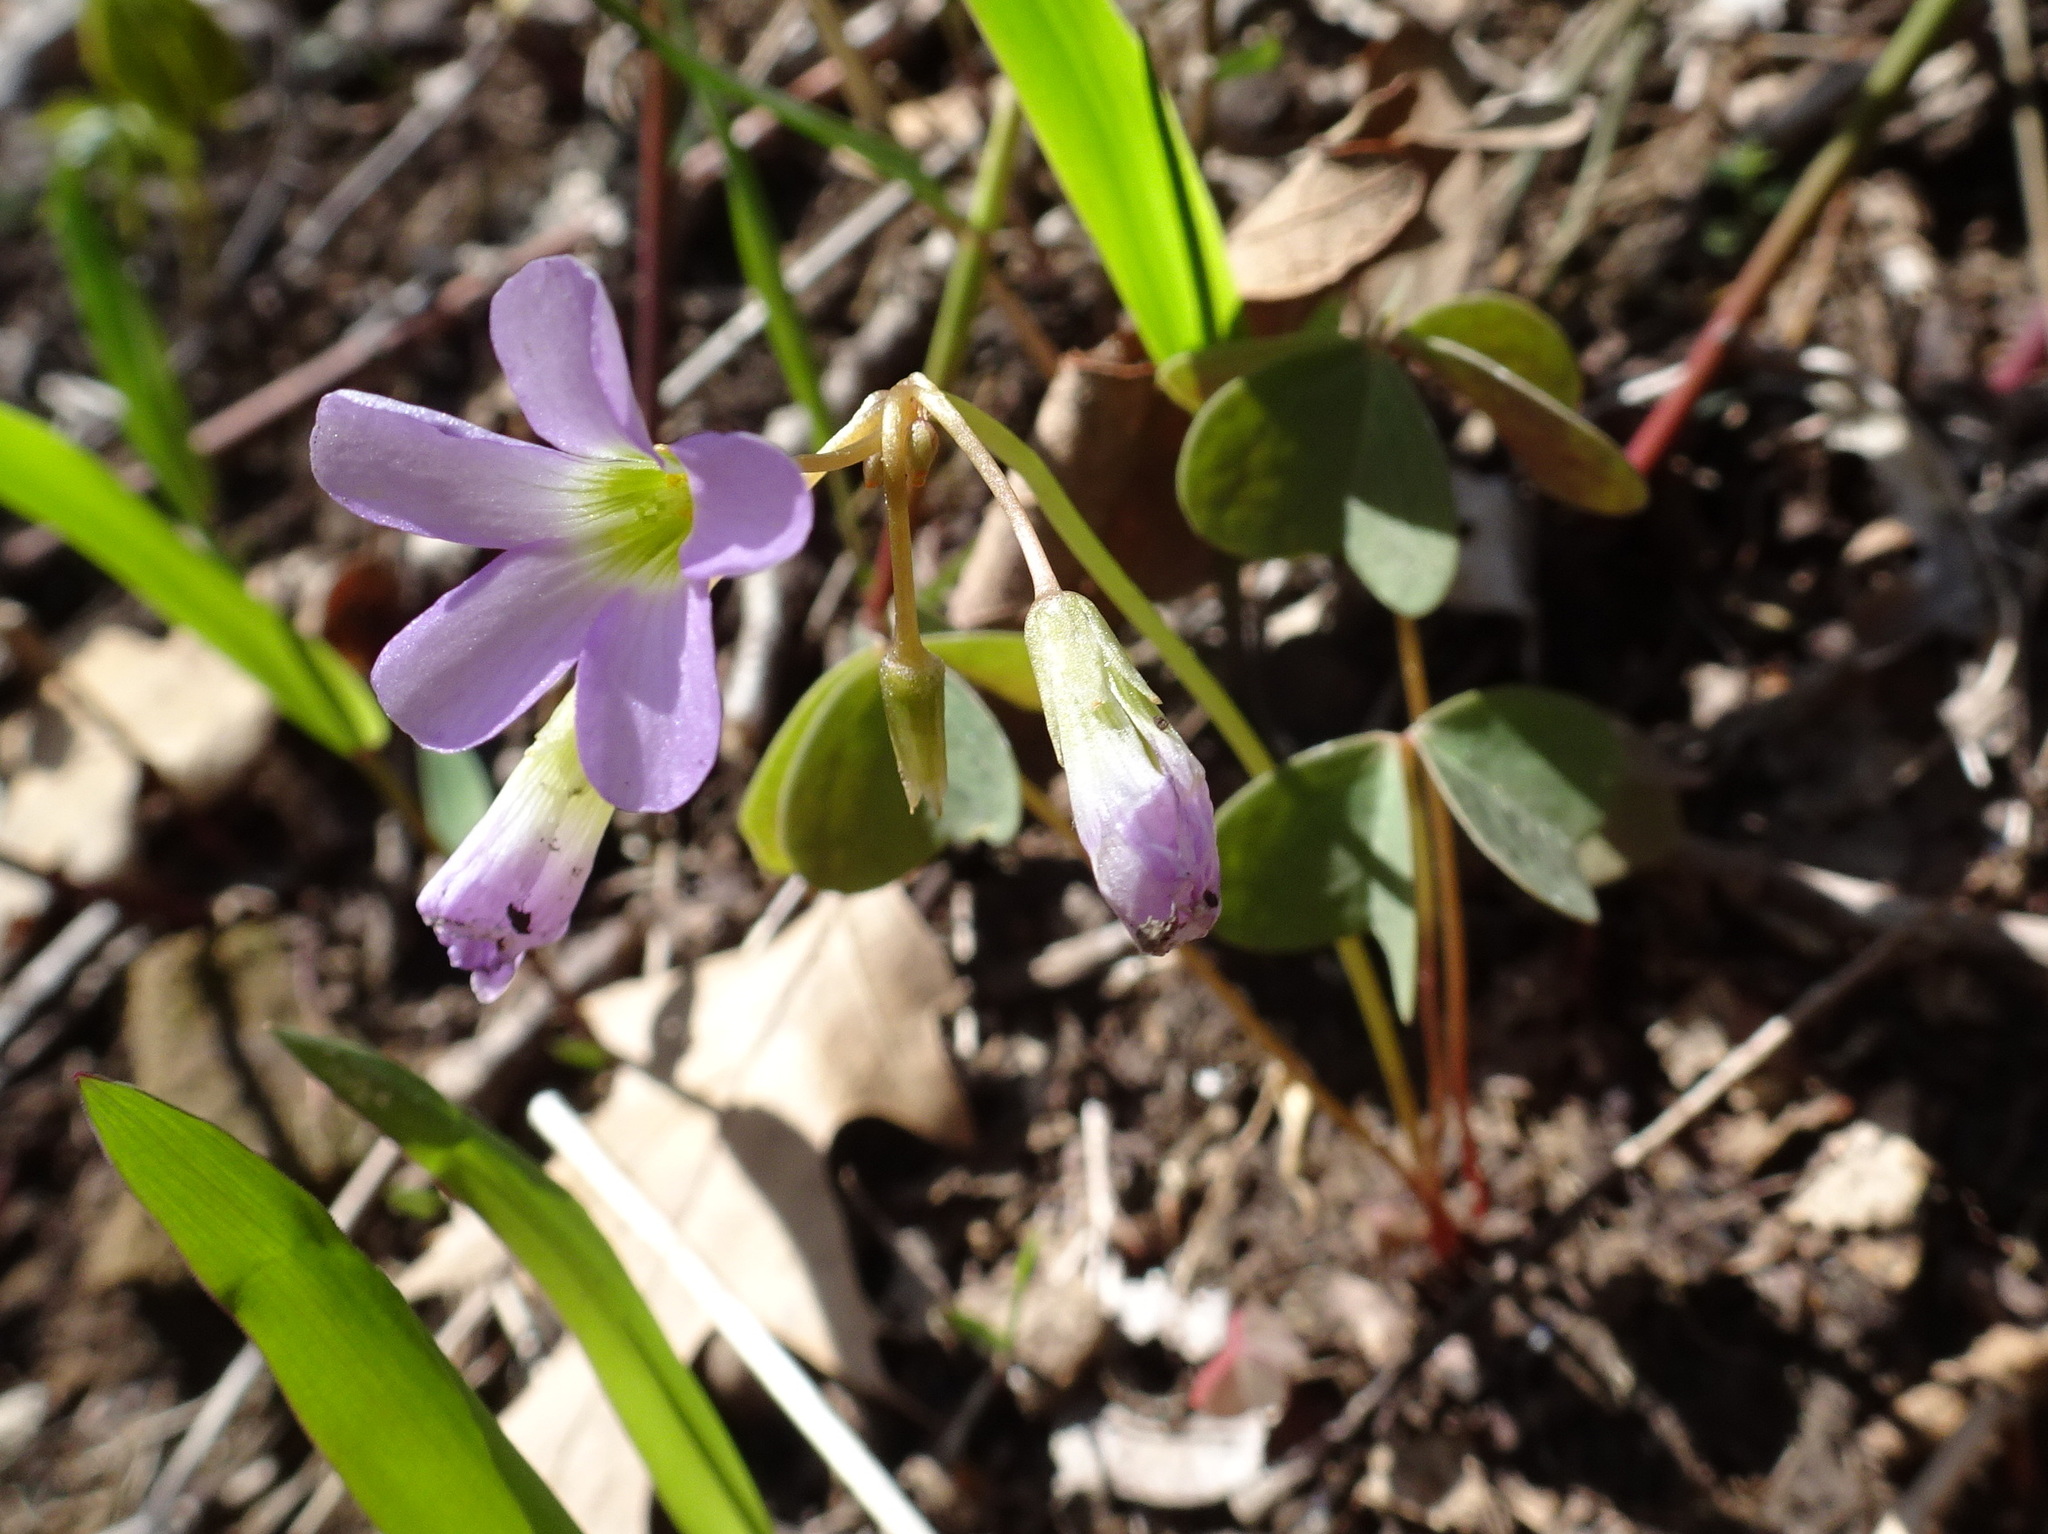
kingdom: Plantae
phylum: Tracheophyta
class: Magnoliopsida
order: Oxalidales
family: Oxalidaceae
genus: Oxalis
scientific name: Oxalis violacea
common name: Violet wood-sorrel
